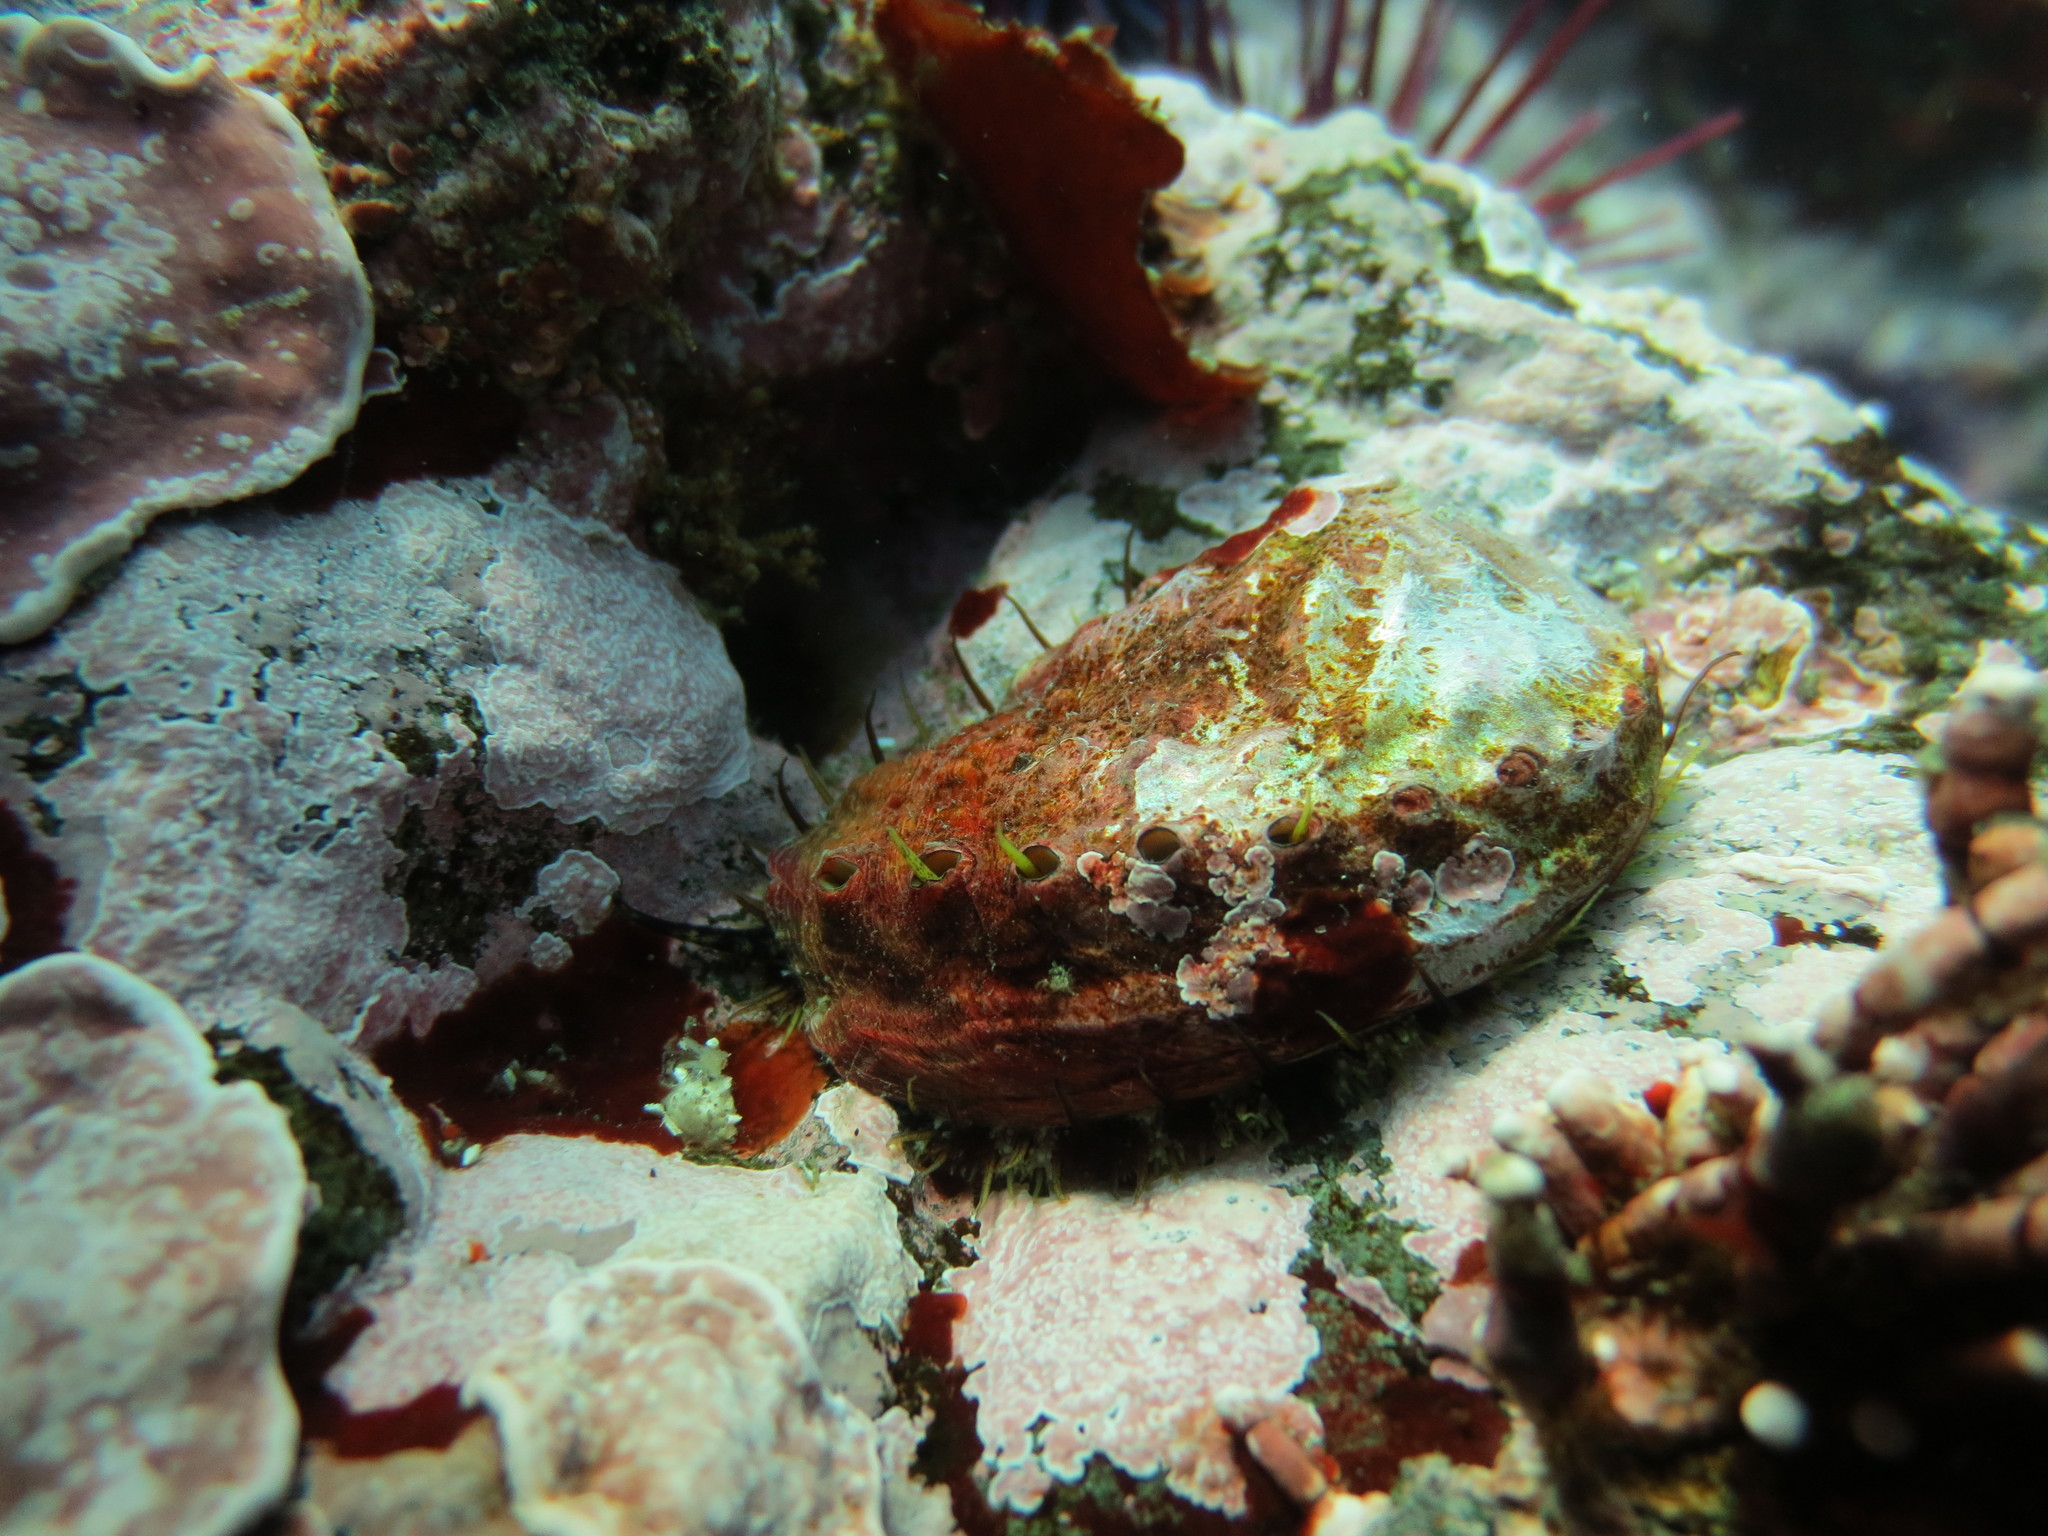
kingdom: Animalia
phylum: Mollusca
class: Gastropoda
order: Lepetellida
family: Haliotidae
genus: Haliotis
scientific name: Haliotis kamtschatkana
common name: Pinto abalone
